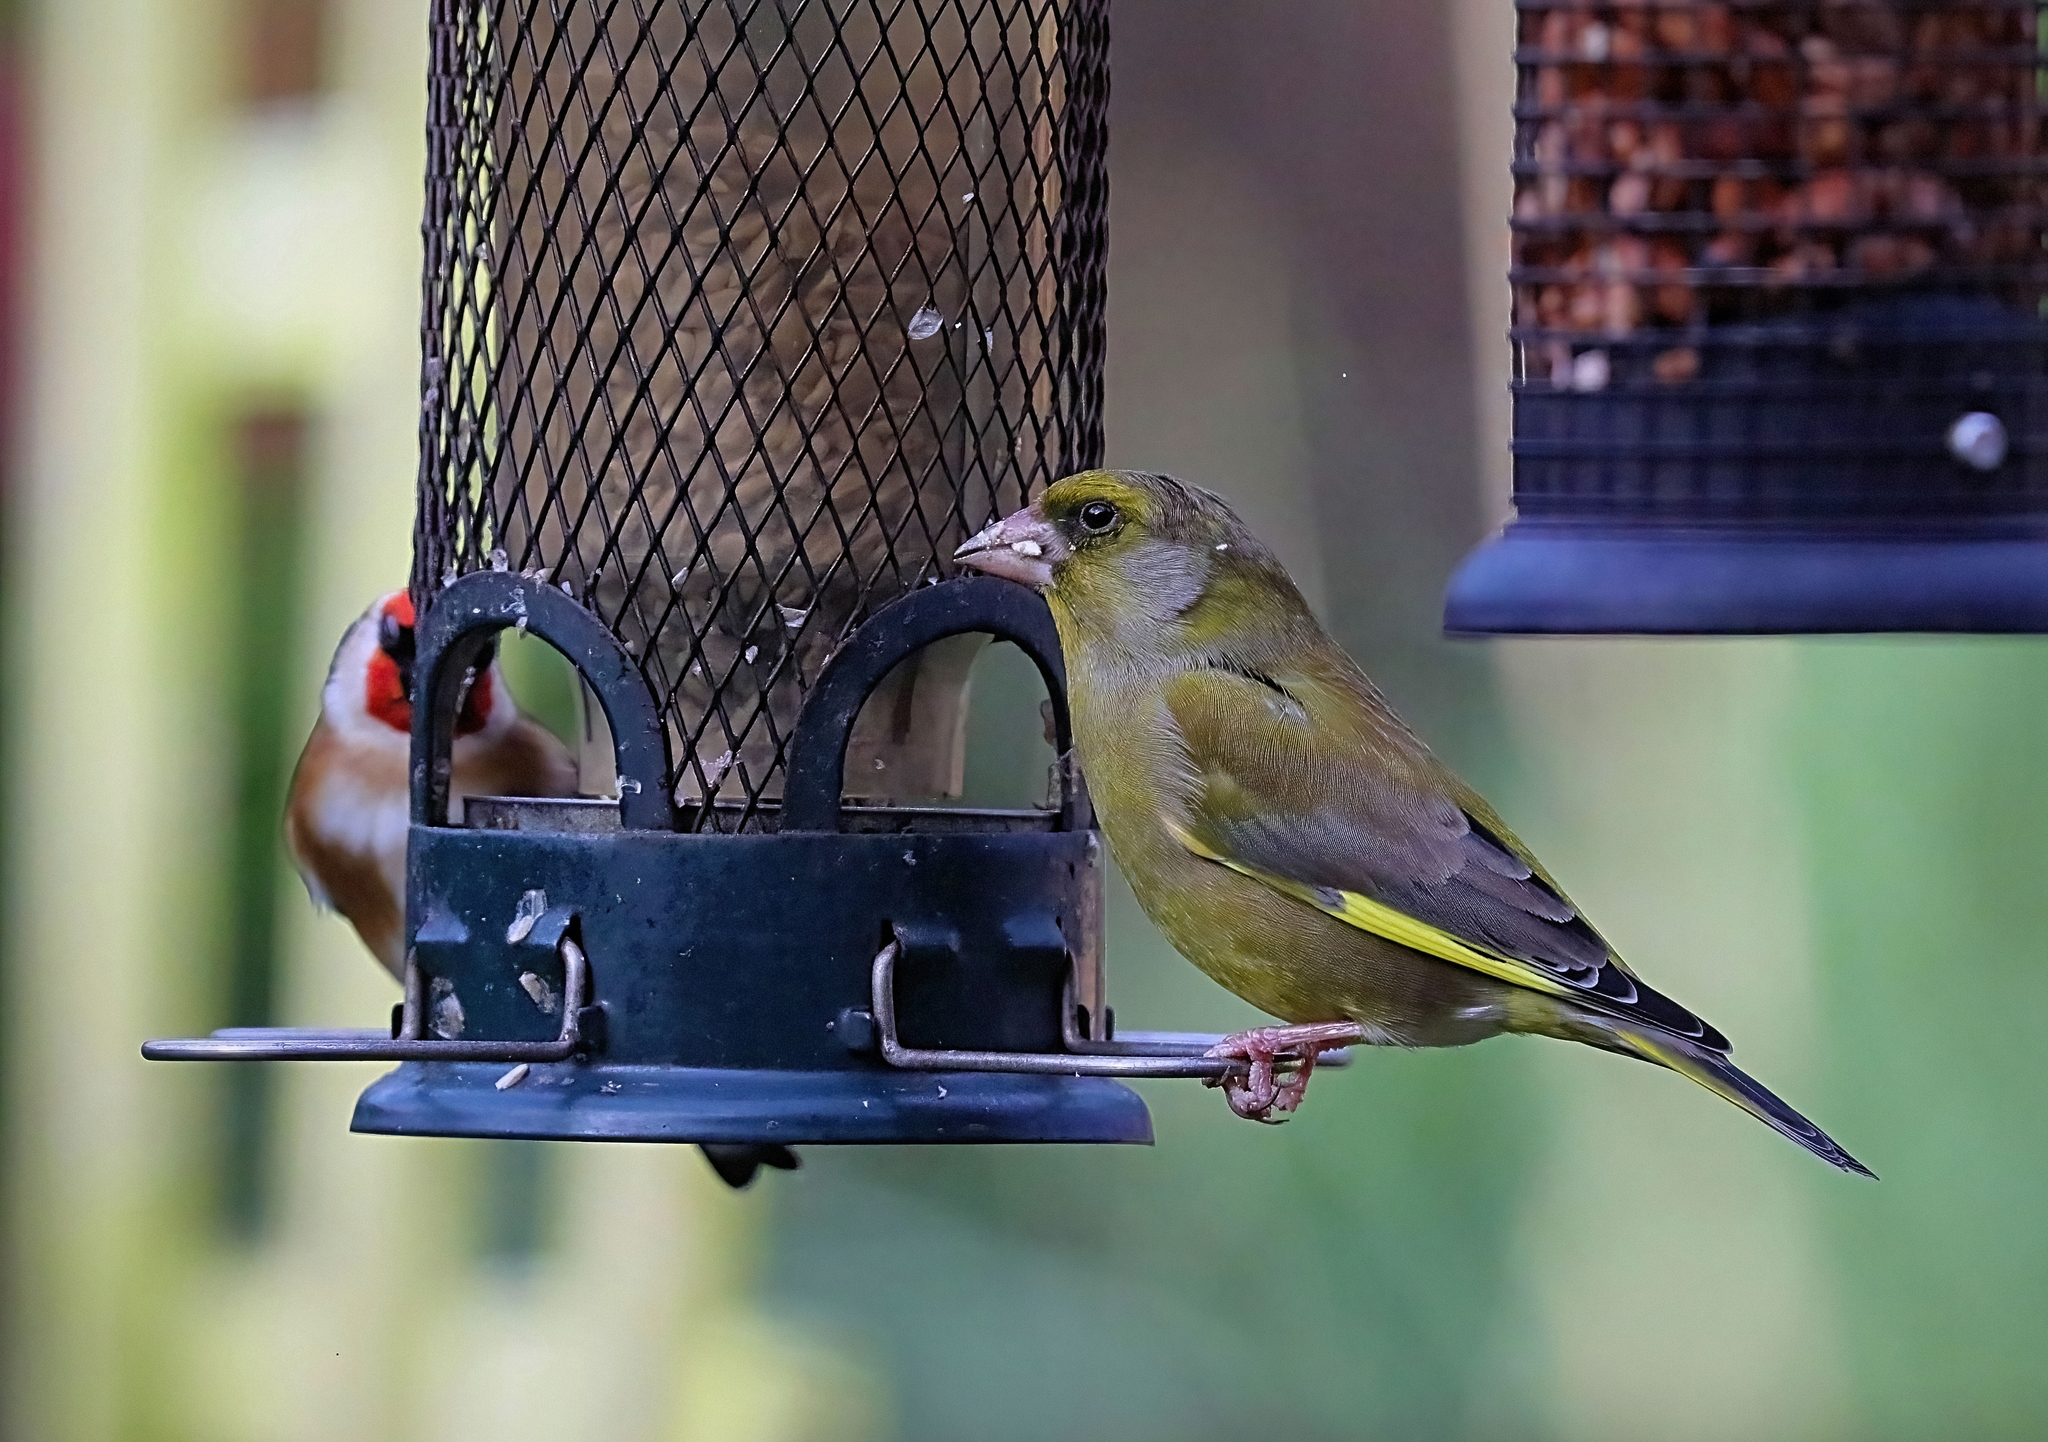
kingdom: Plantae
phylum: Tracheophyta
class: Liliopsida
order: Poales
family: Poaceae
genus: Chloris
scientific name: Chloris chloris
